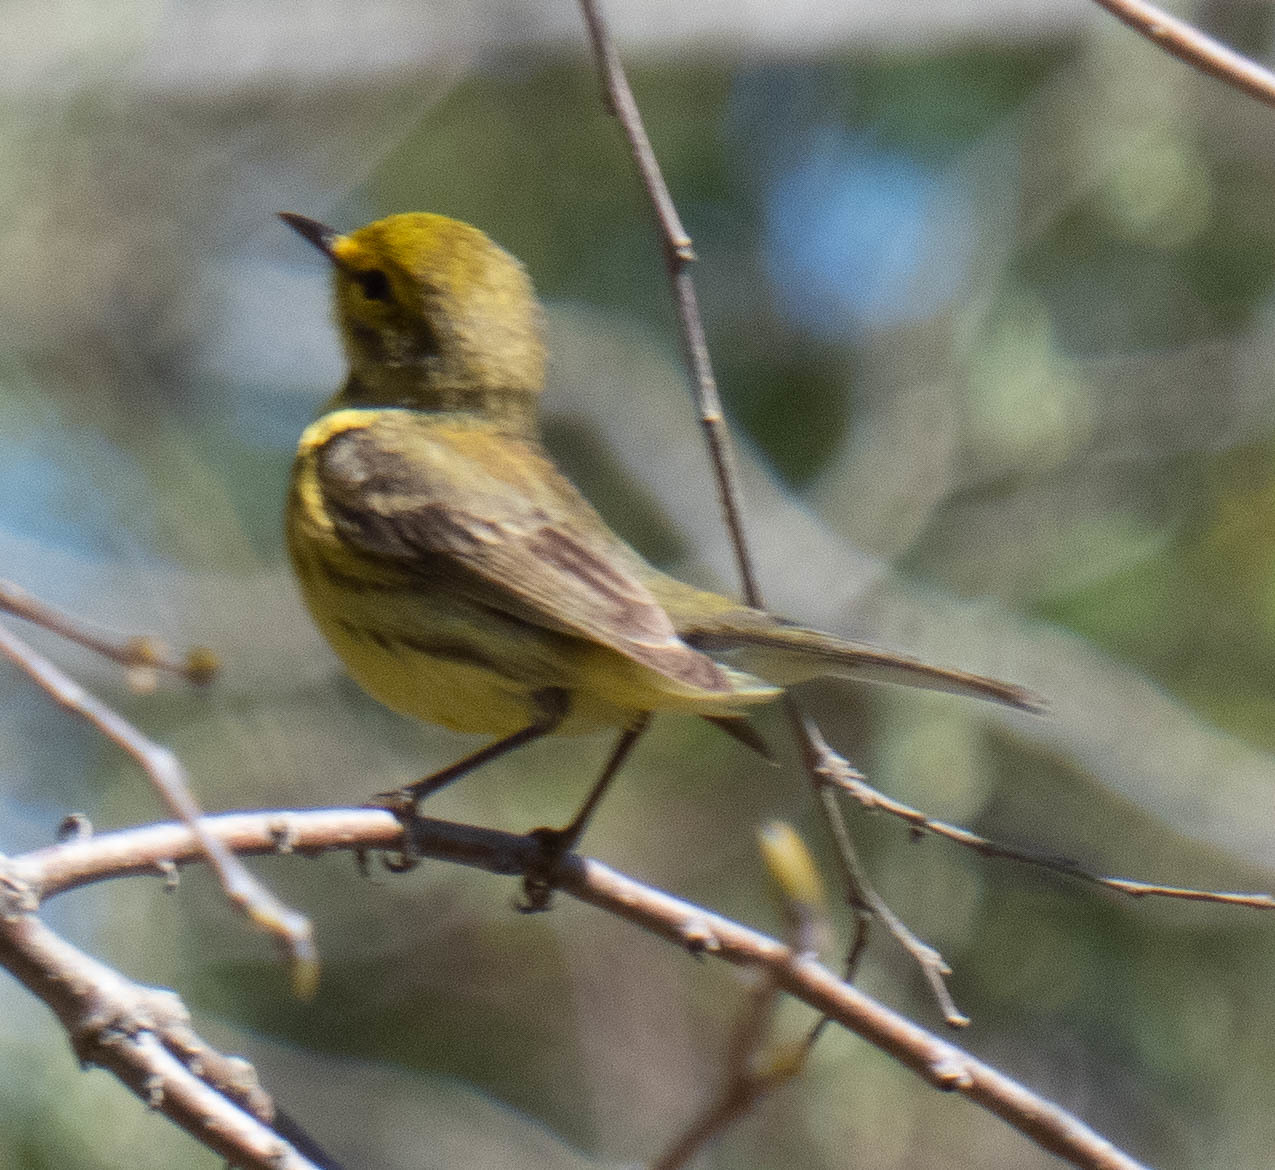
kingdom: Animalia
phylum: Chordata
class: Aves
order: Passeriformes
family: Parulidae
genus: Setophaga
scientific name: Setophaga discolor
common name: Prairie warbler
